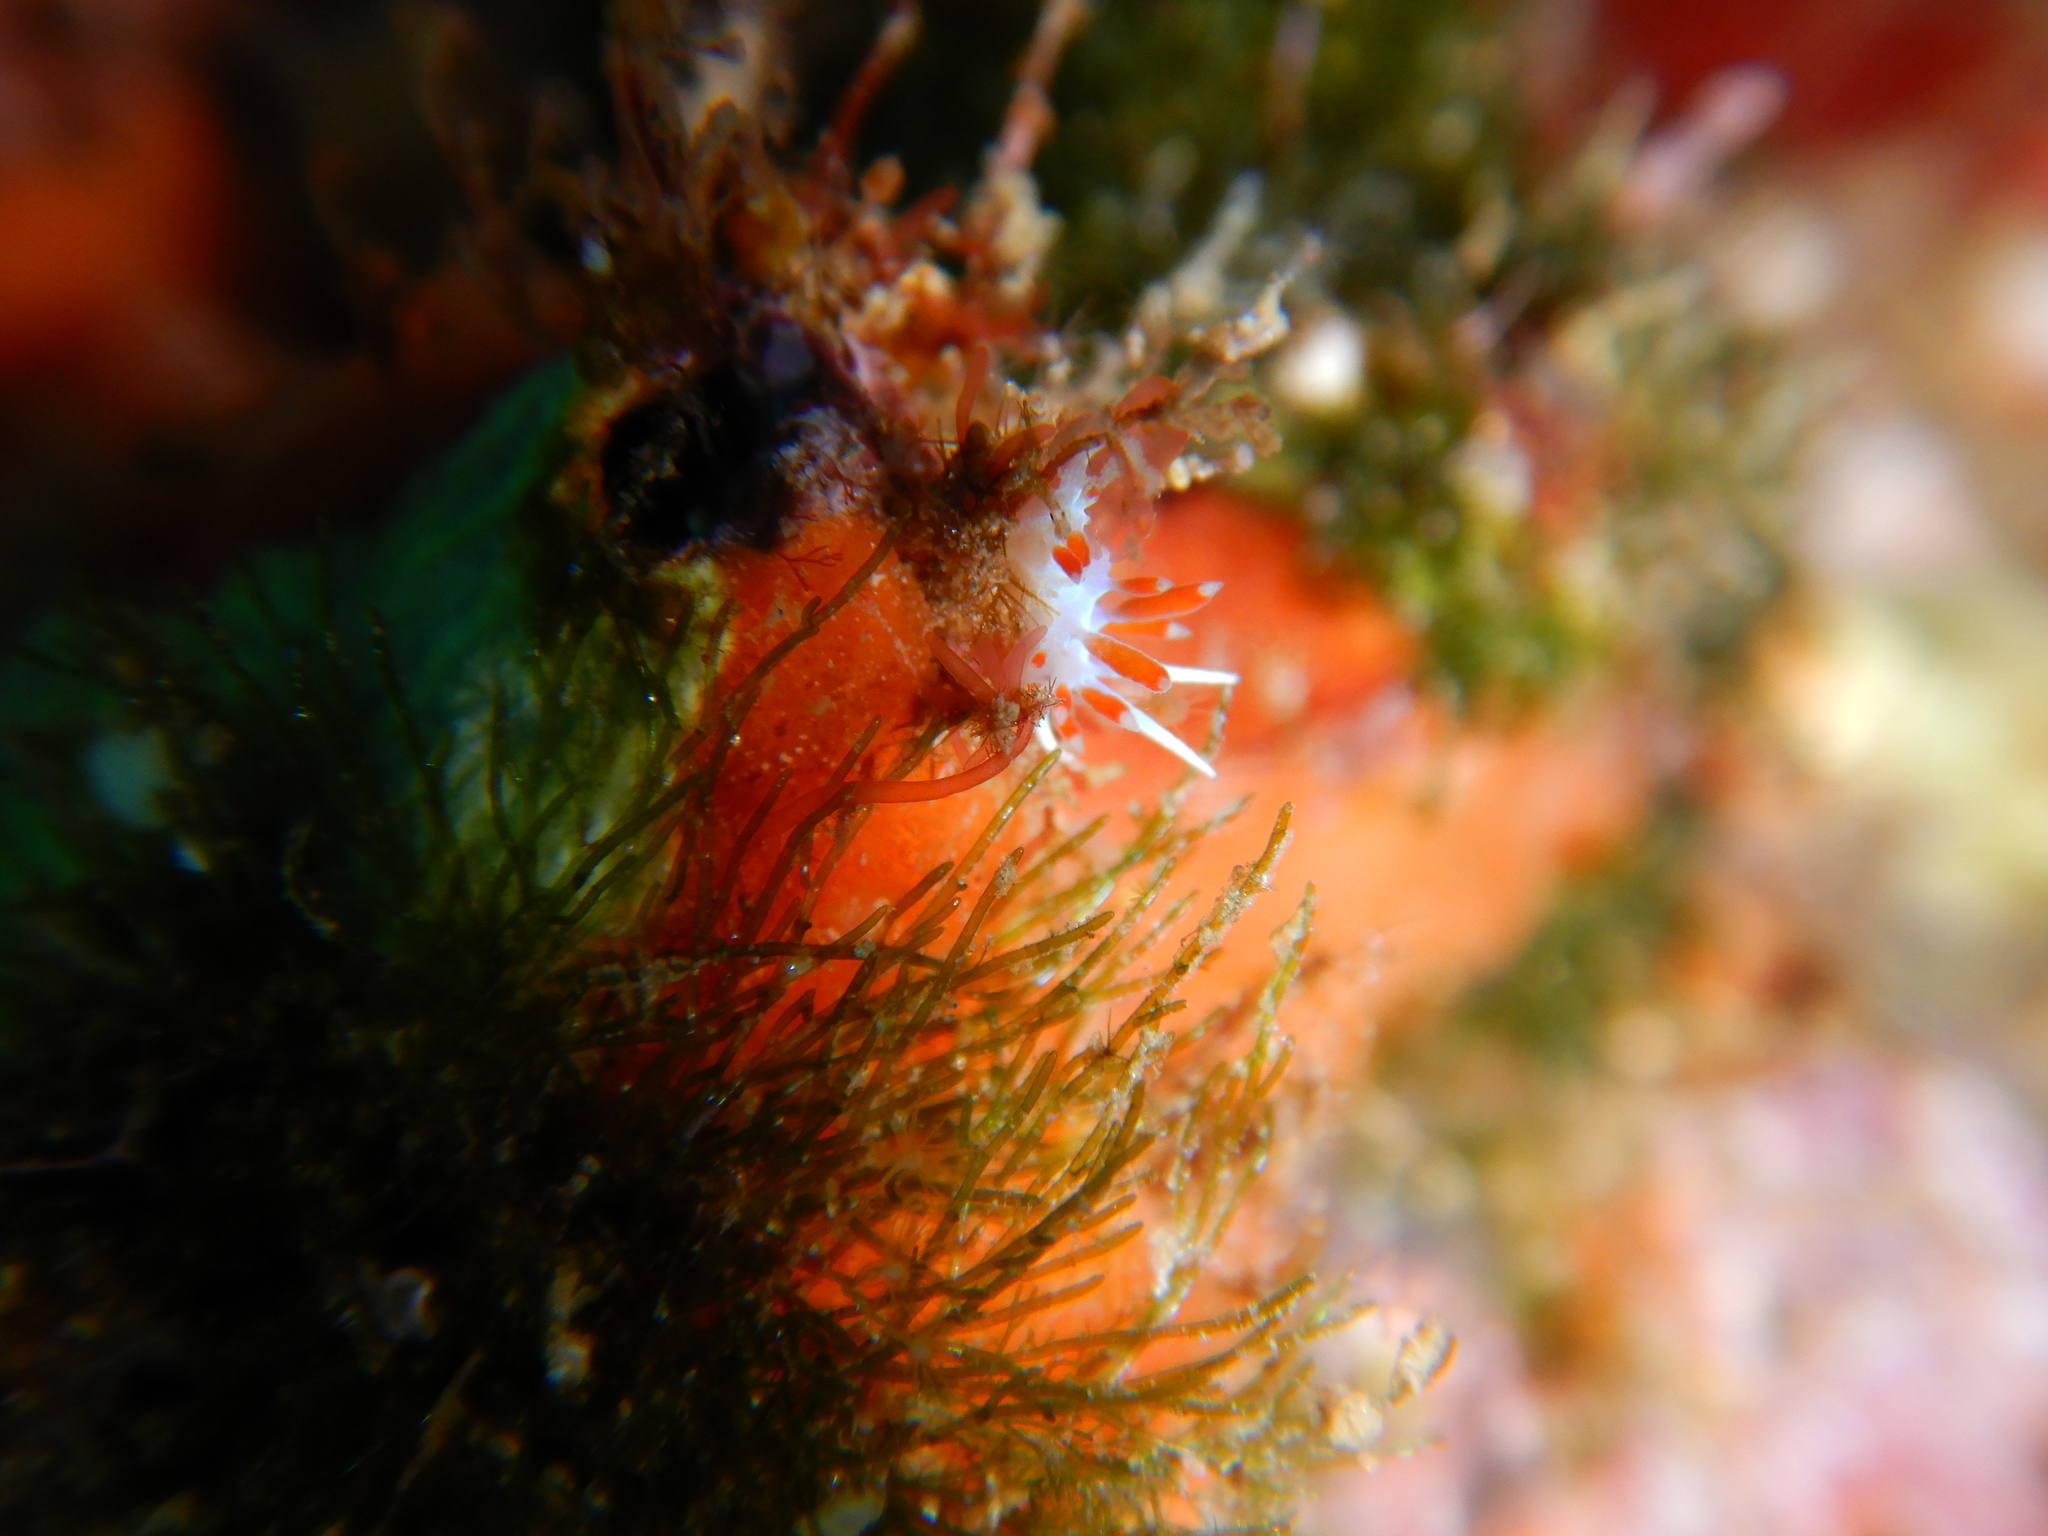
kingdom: Animalia
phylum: Mollusca
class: Gastropoda
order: Nudibranchia
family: Flabellinidae
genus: Calmella
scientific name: Calmella cavolini
